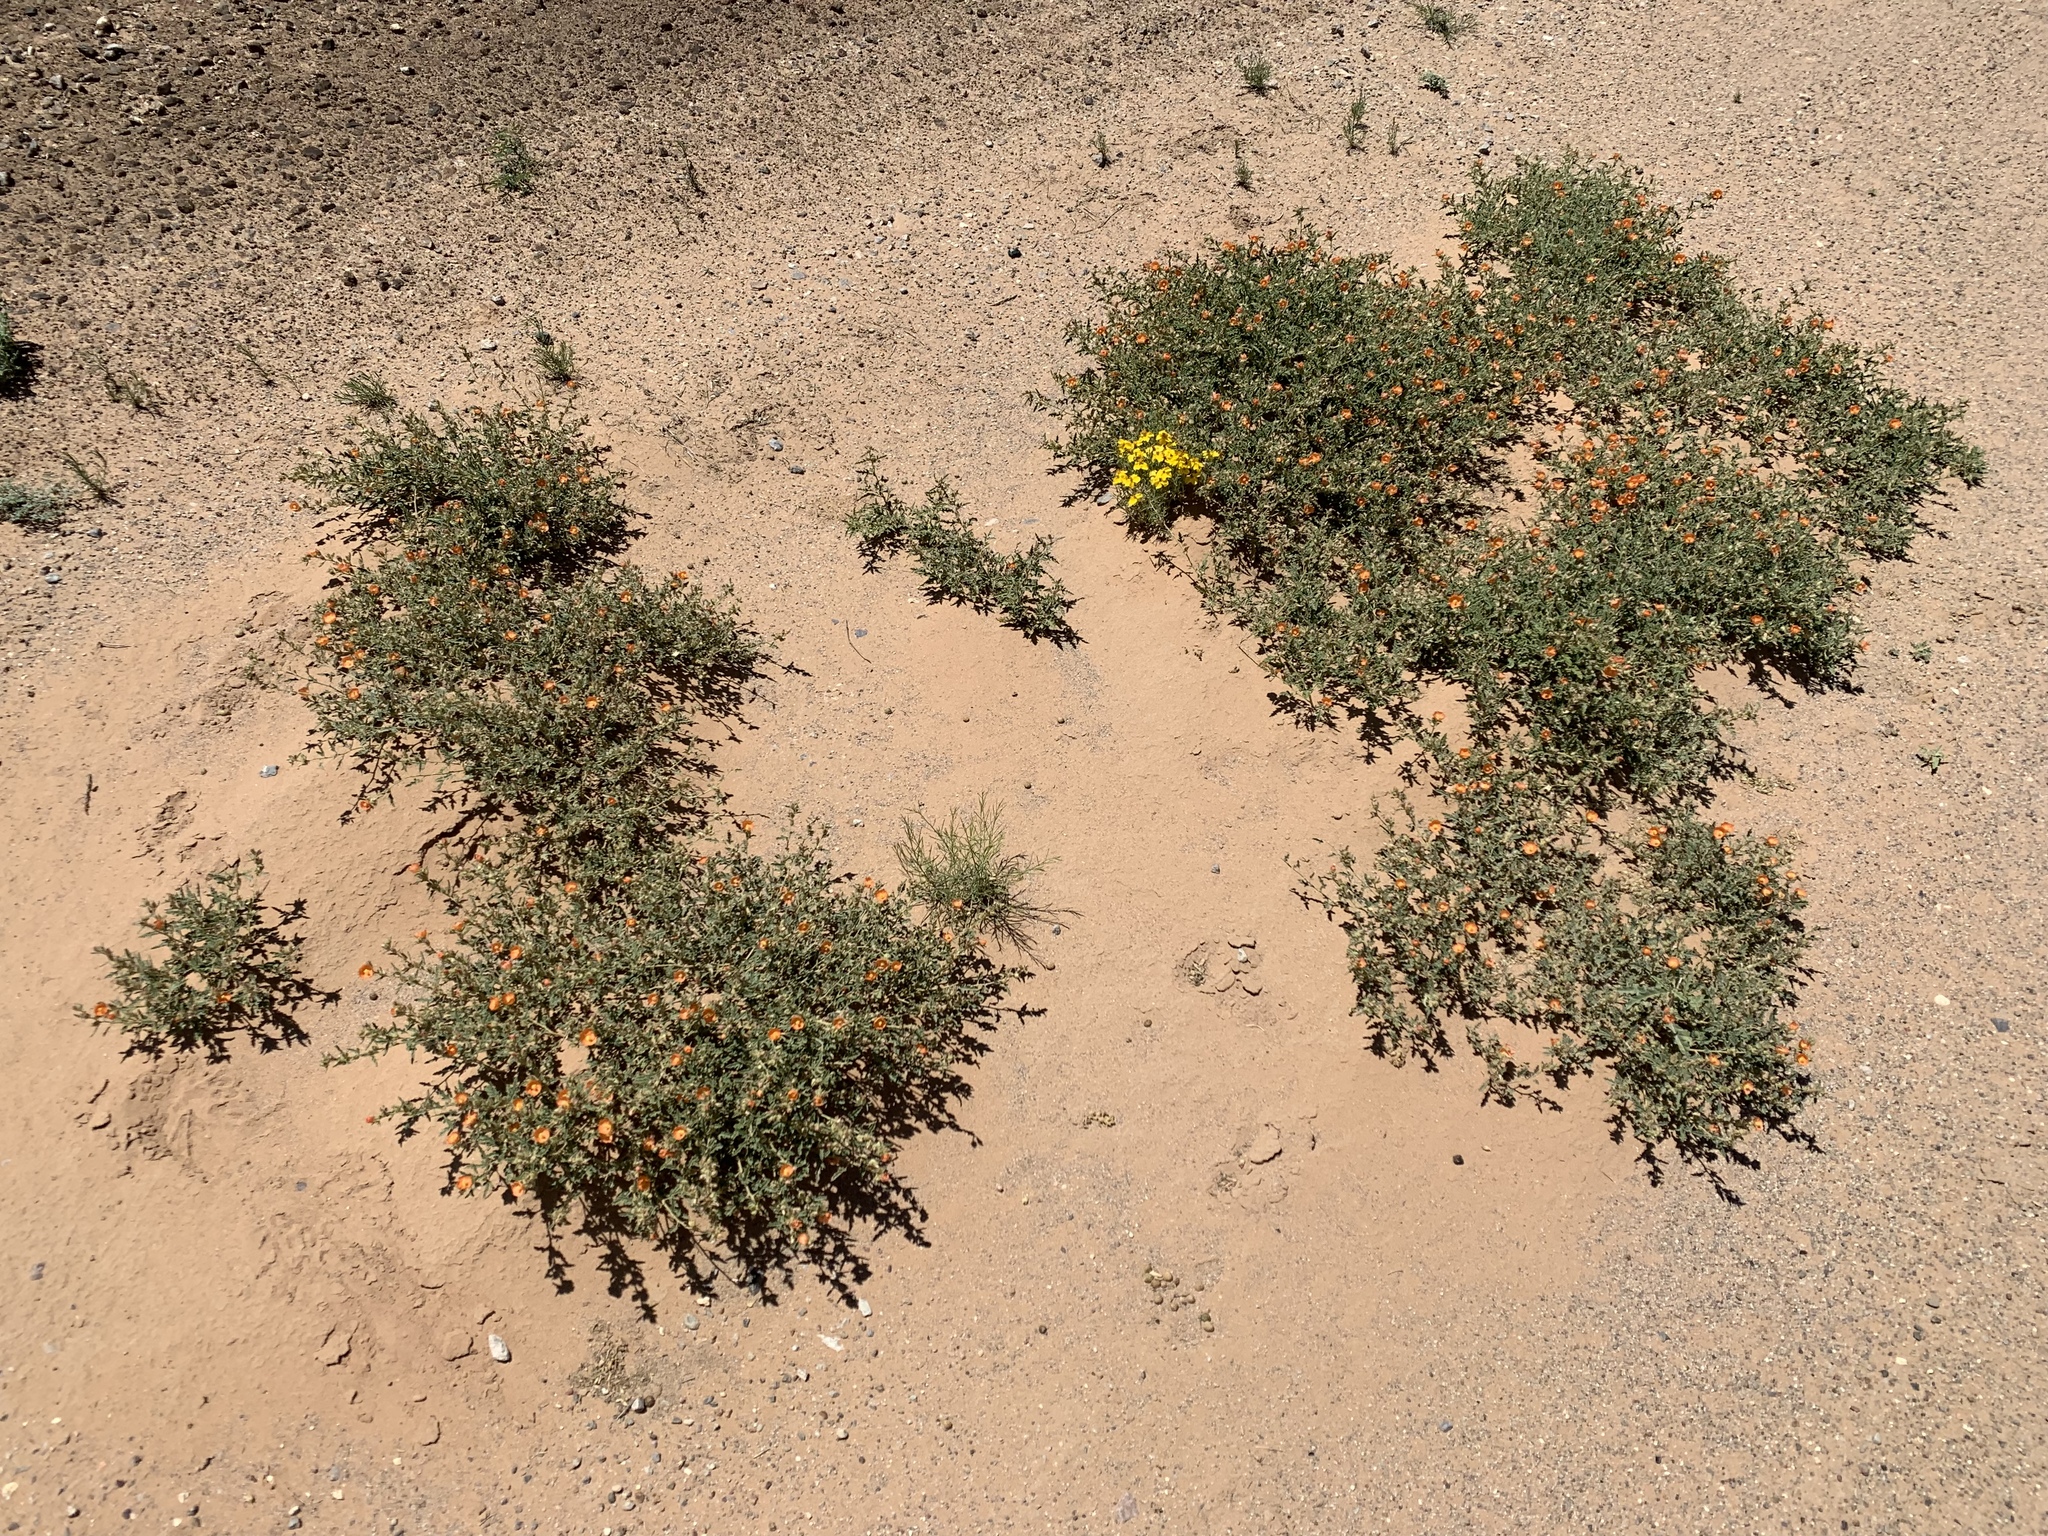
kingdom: Plantae
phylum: Tracheophyta
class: Magnoliopsida
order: Malvales
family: Malvaceae
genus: Sphaeralcea
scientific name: Sphaeralcea angustifolia
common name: Copper globe-mallow
